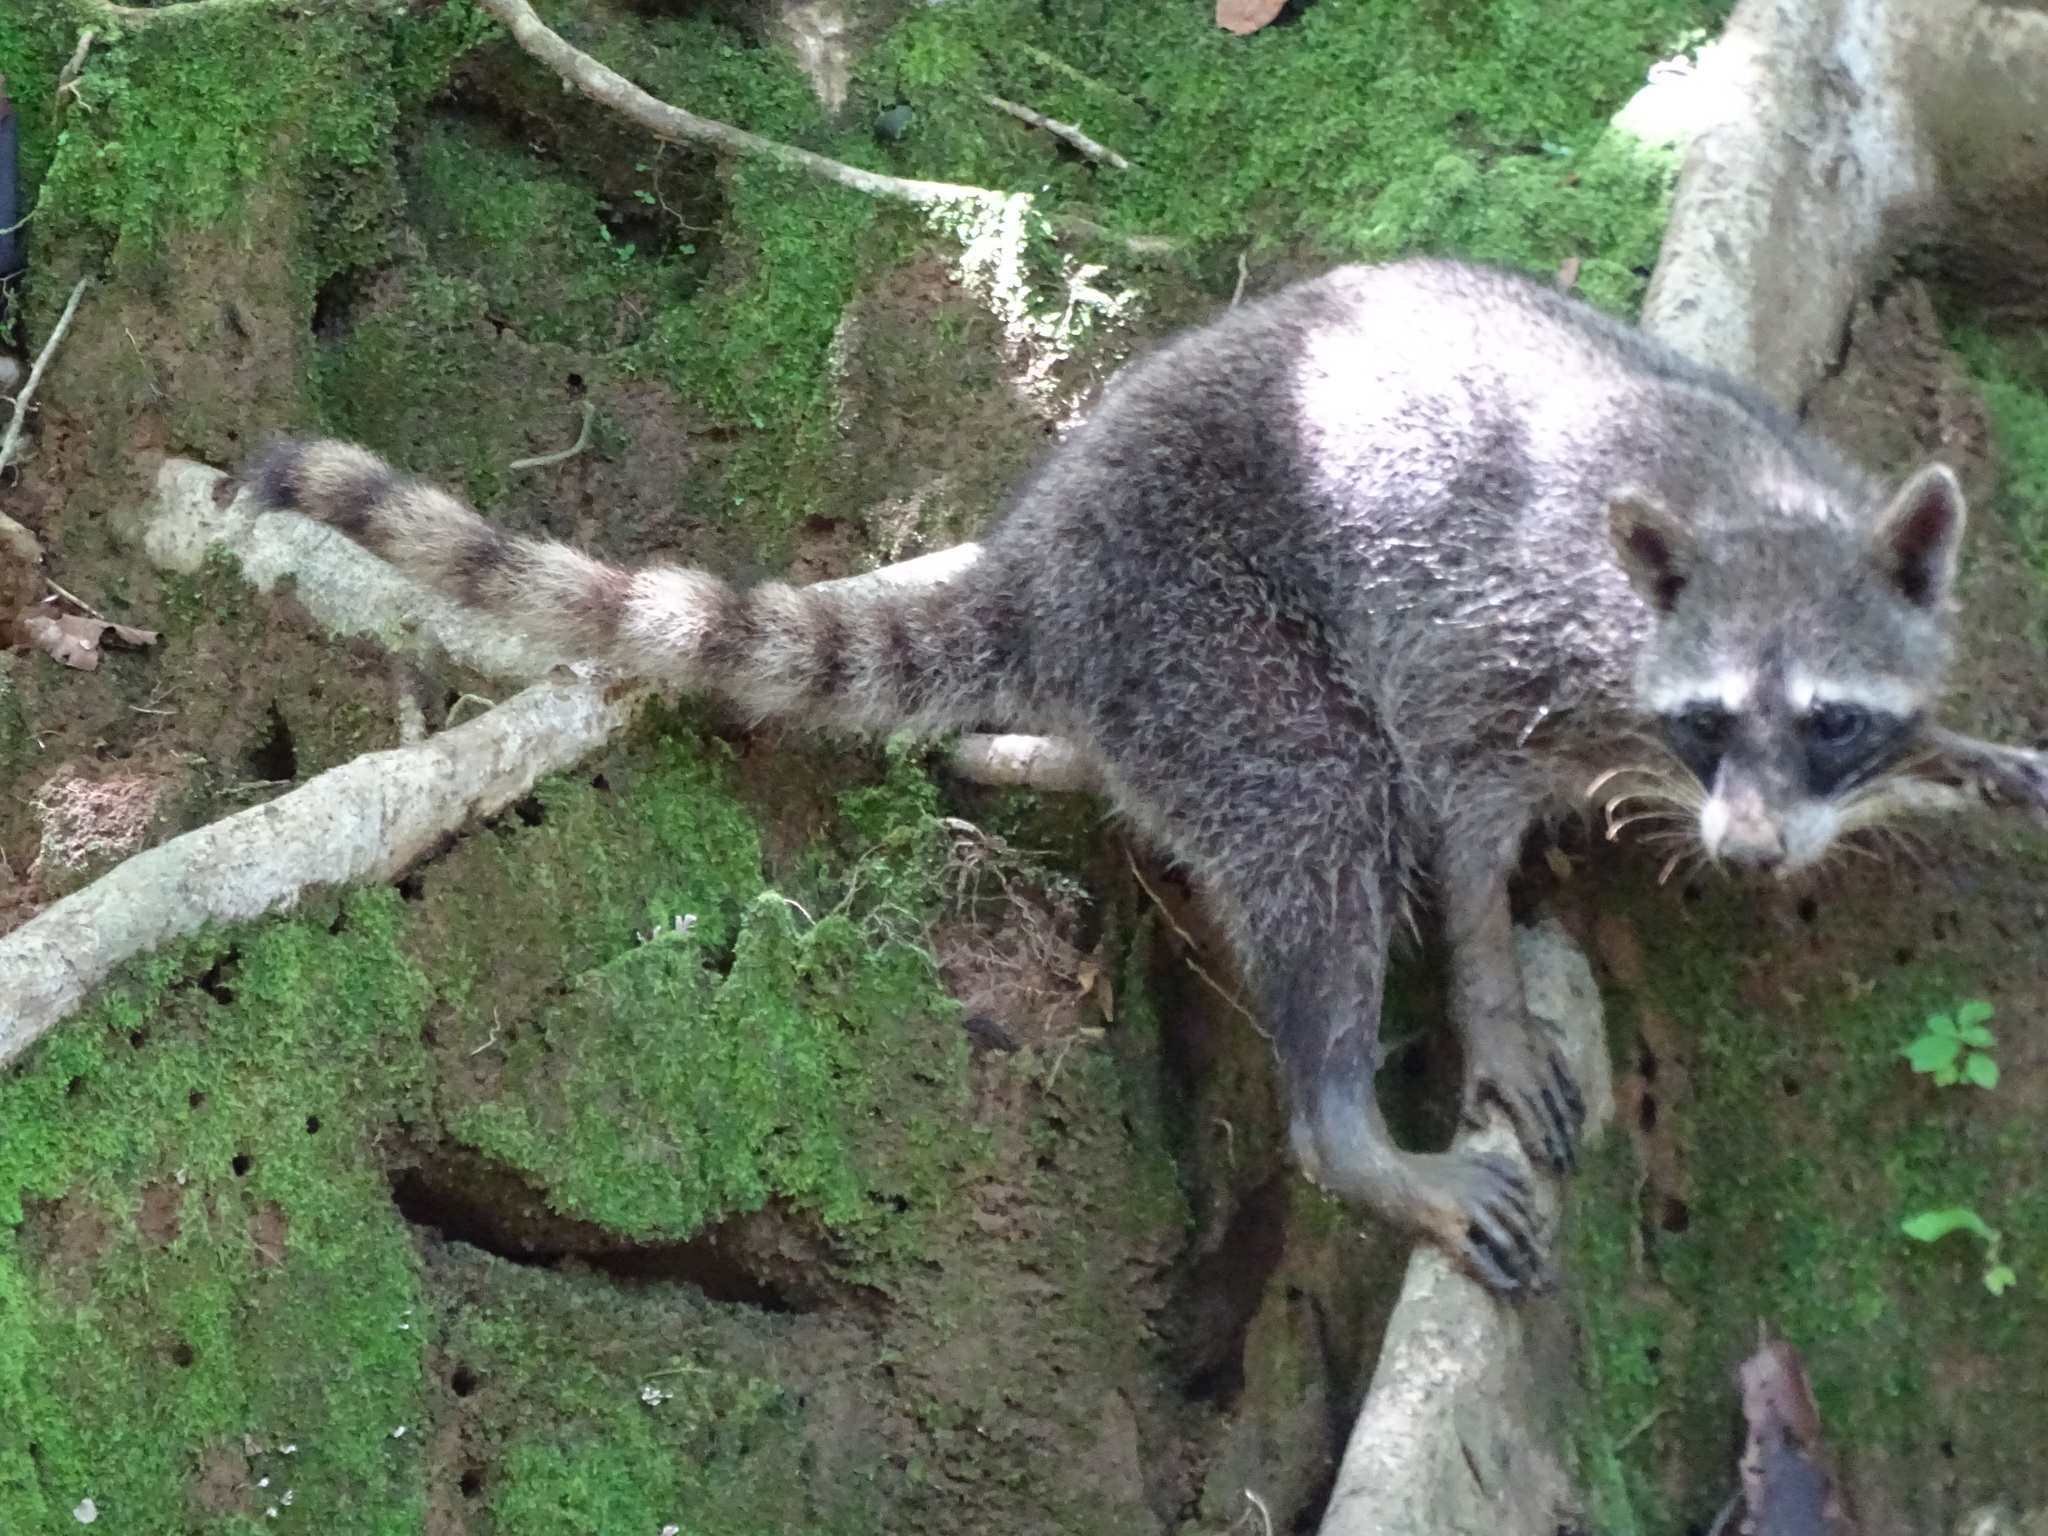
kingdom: Animalia
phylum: Chordata
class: Mammalia
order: Carnivora
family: Procyonidae
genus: Procyon
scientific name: Procyon lotor
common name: Raccoon
